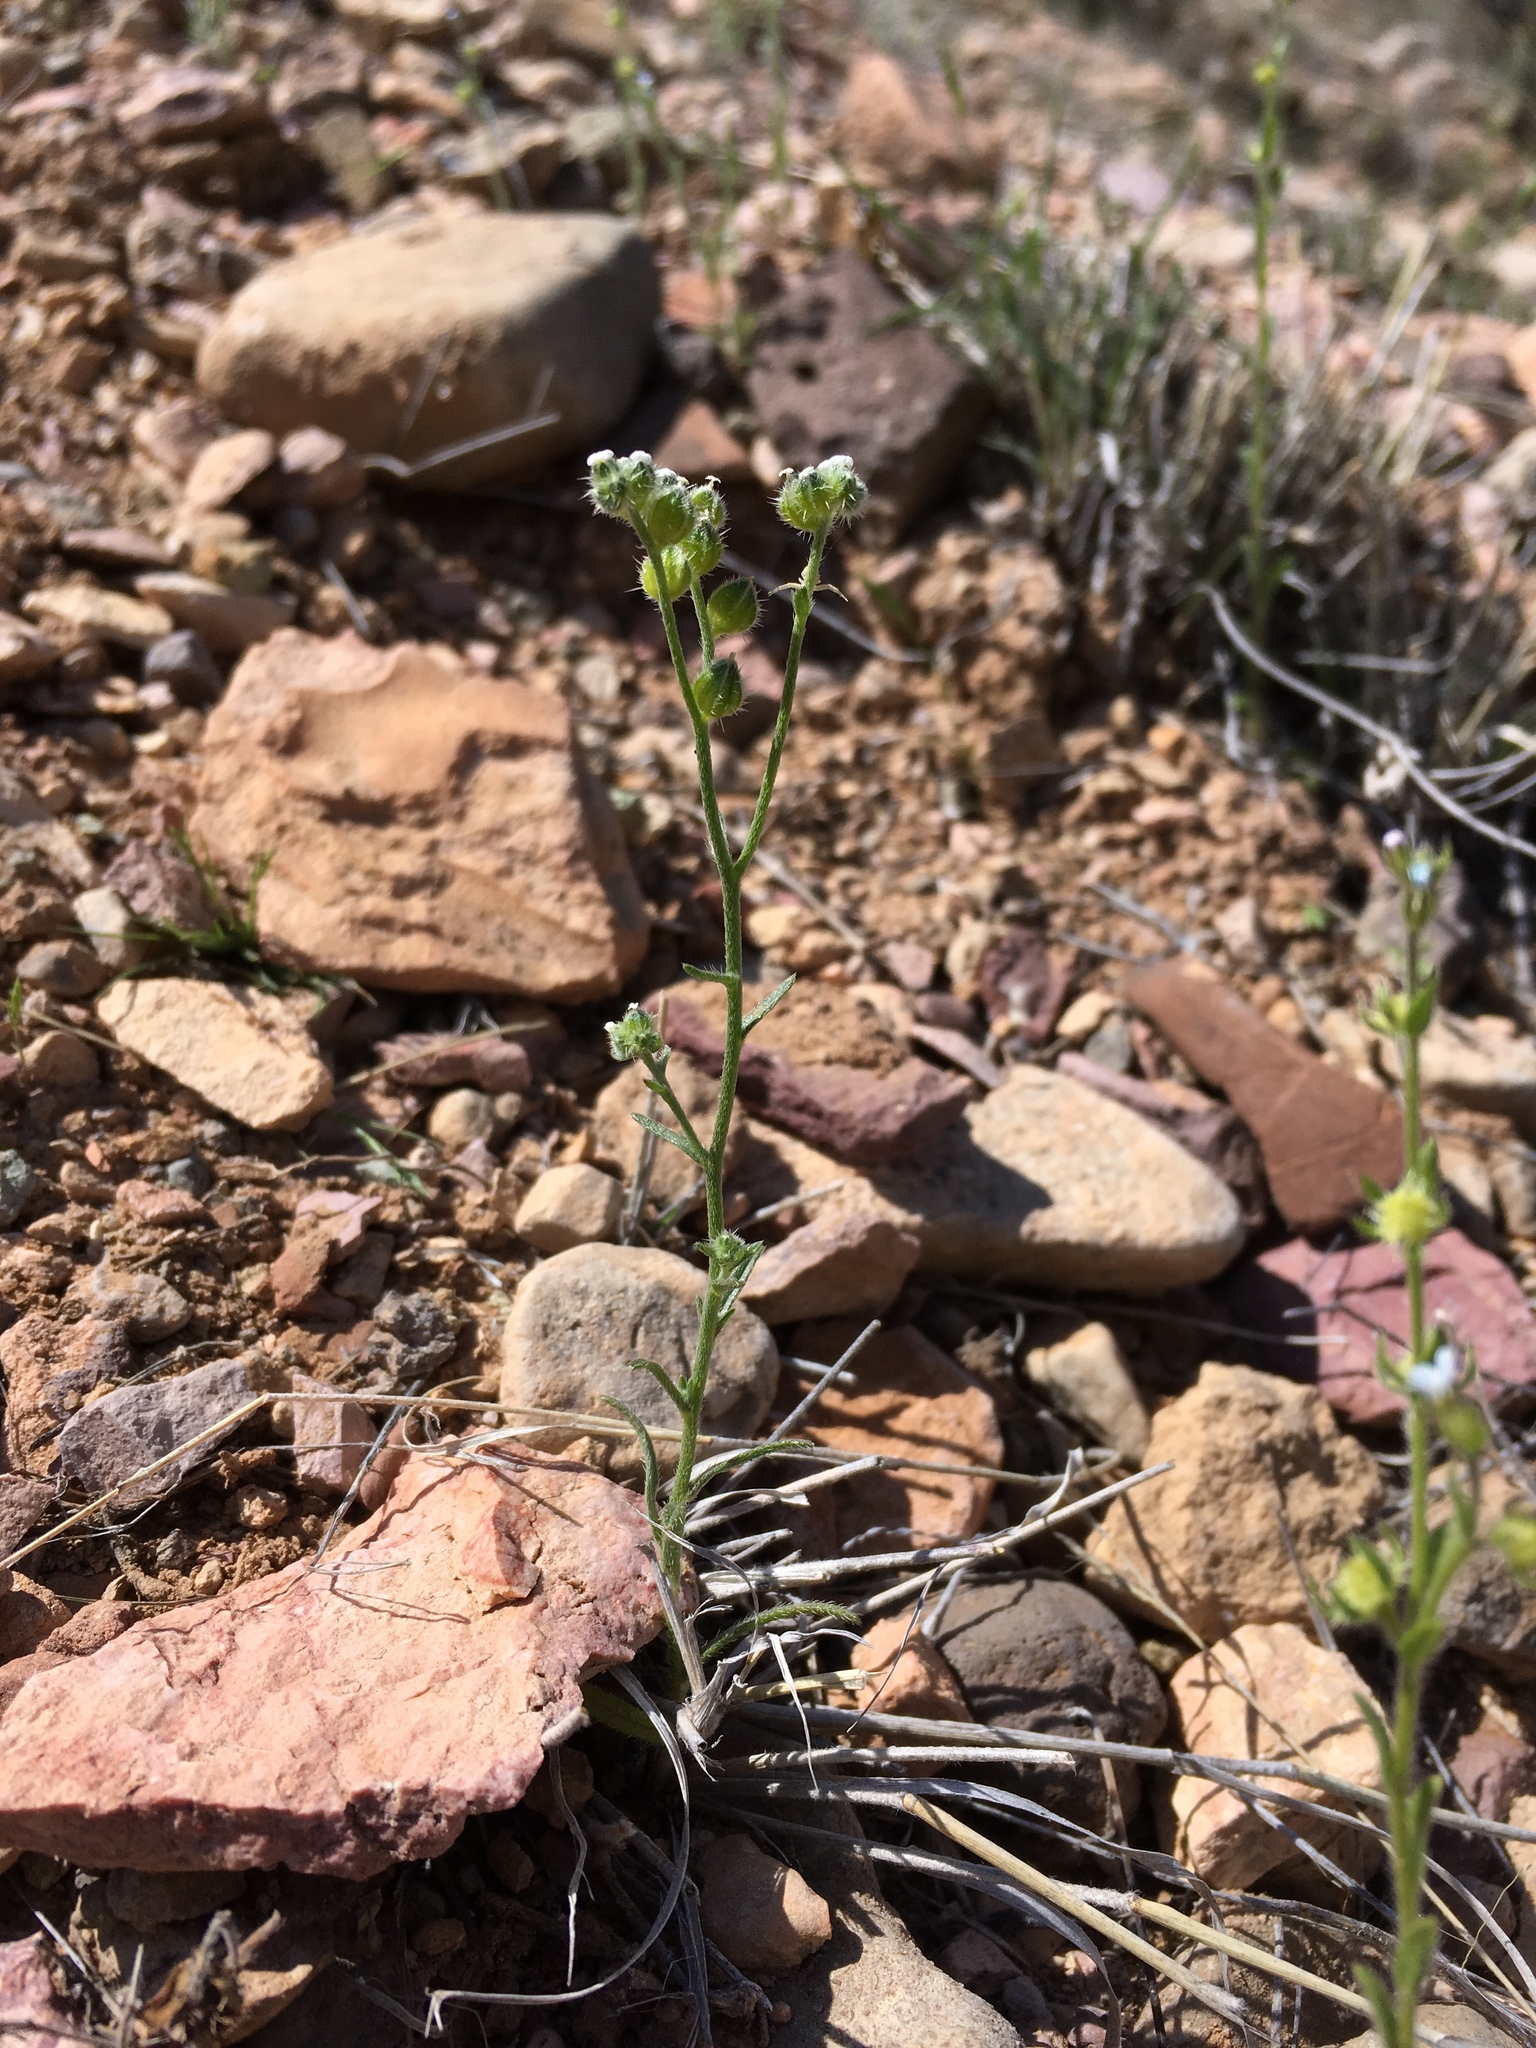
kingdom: Plantae
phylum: Tracheophyta
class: Magnoliopsida
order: Boraginales
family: Boraginaceae
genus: Cryptantha
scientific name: Cryptantha pterocarya
